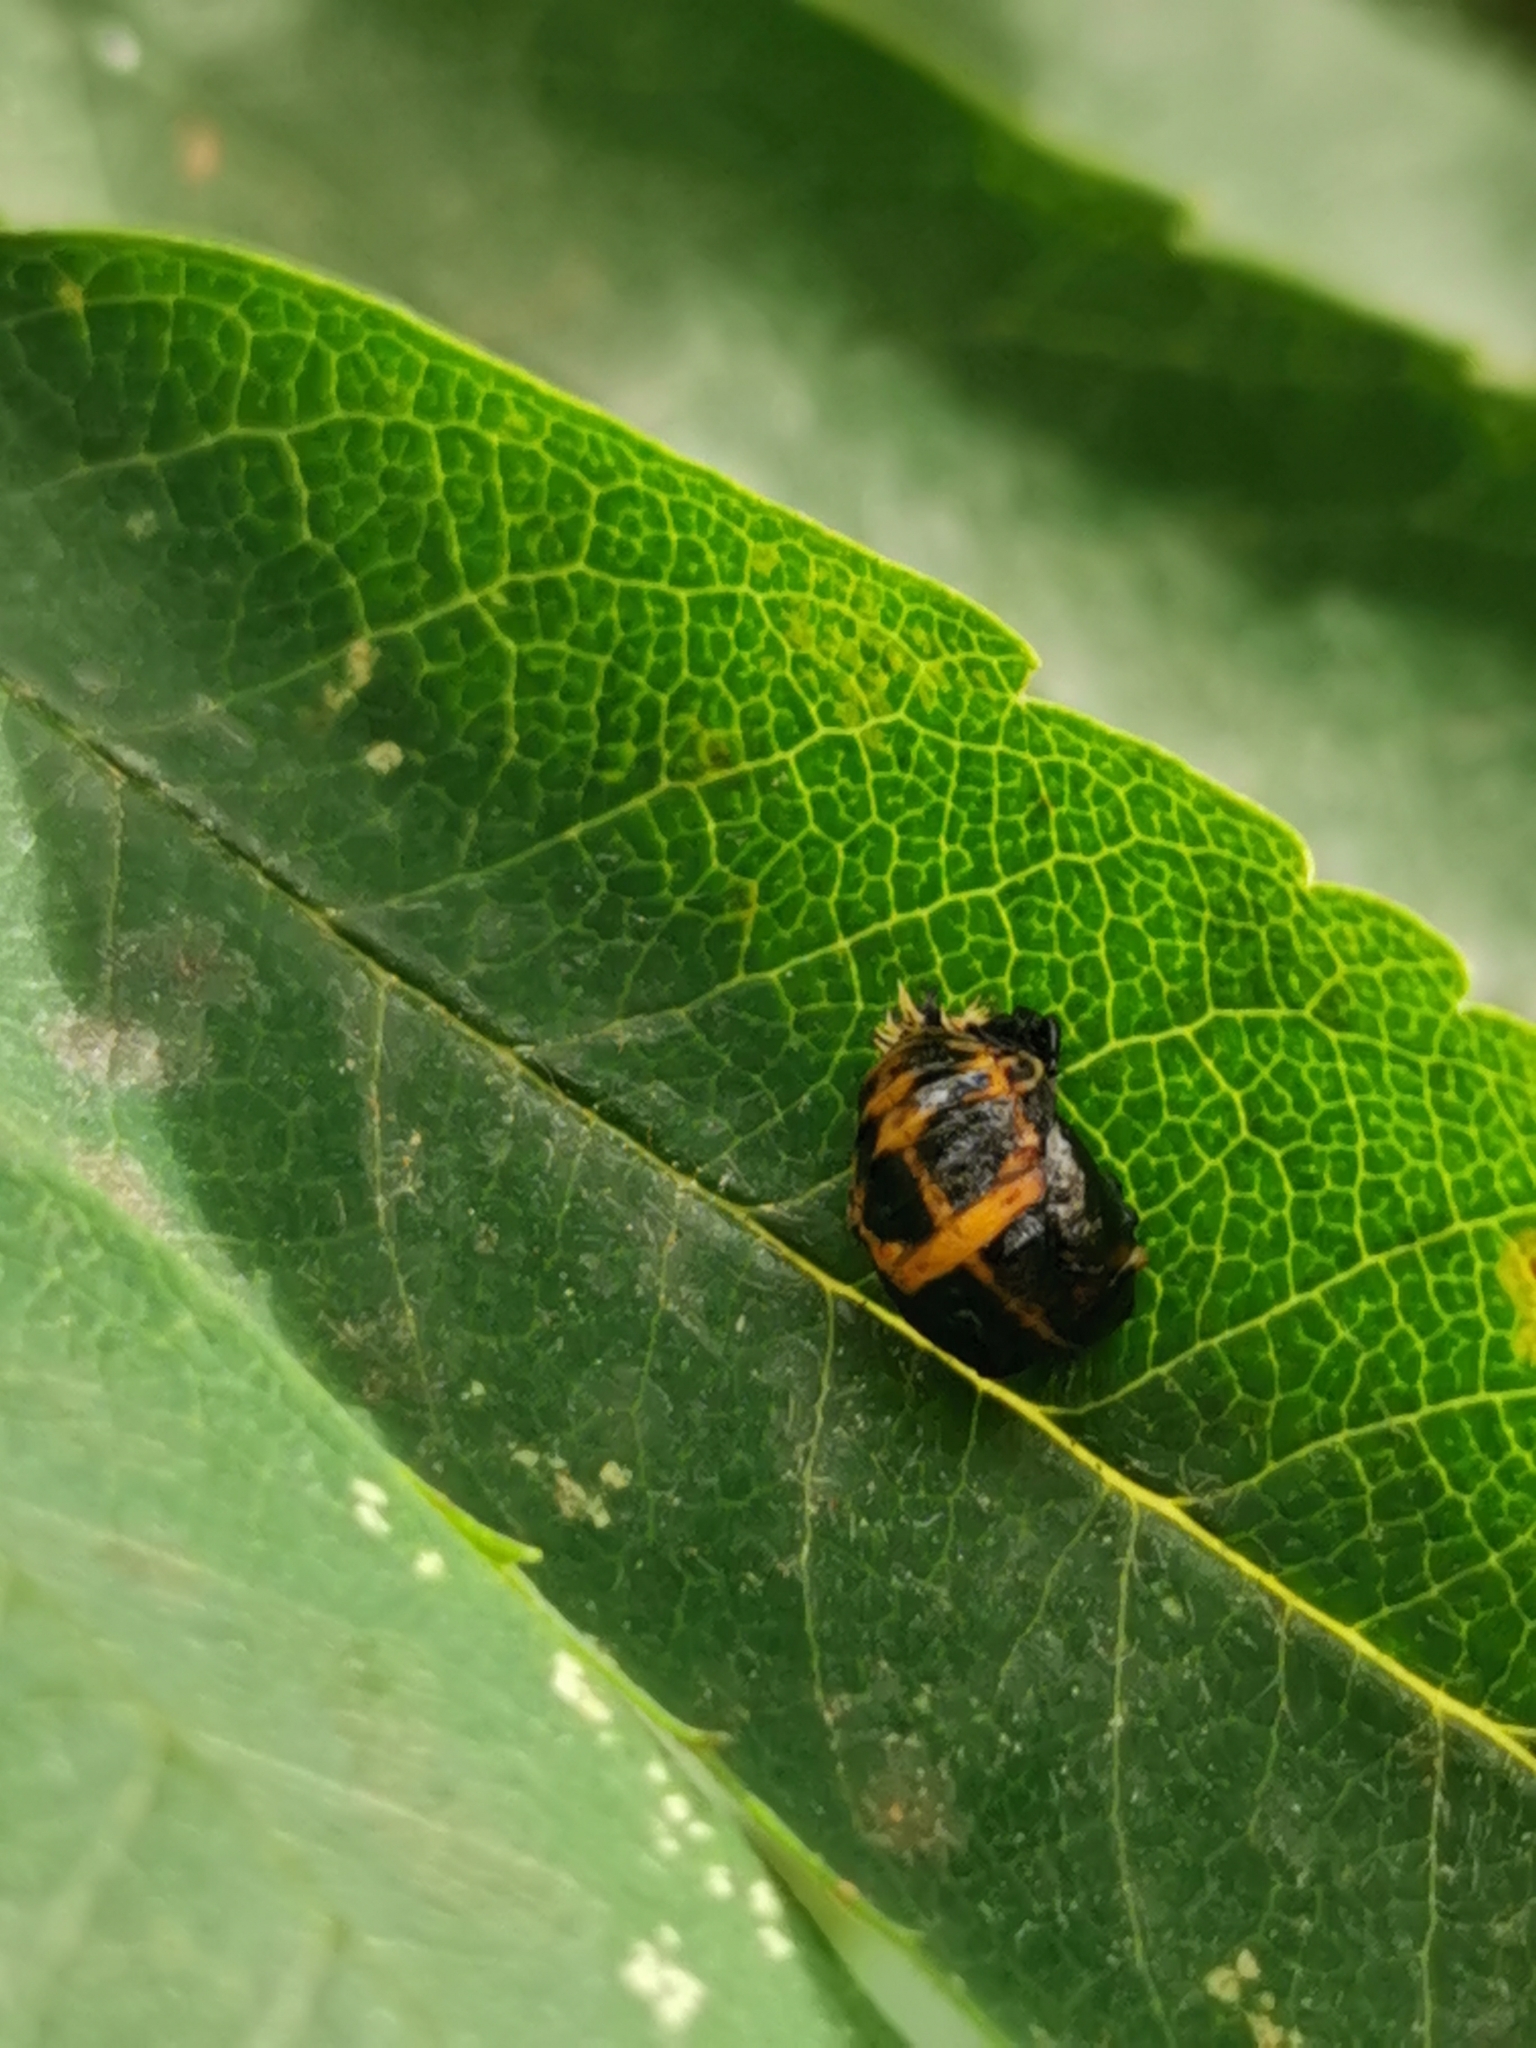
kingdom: Animalia
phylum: Arthropoda
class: Insecta
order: Coleoptera
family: Coccinellidae
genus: Harmonia
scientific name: Harmonia axyridis
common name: Harlequin ladybird
